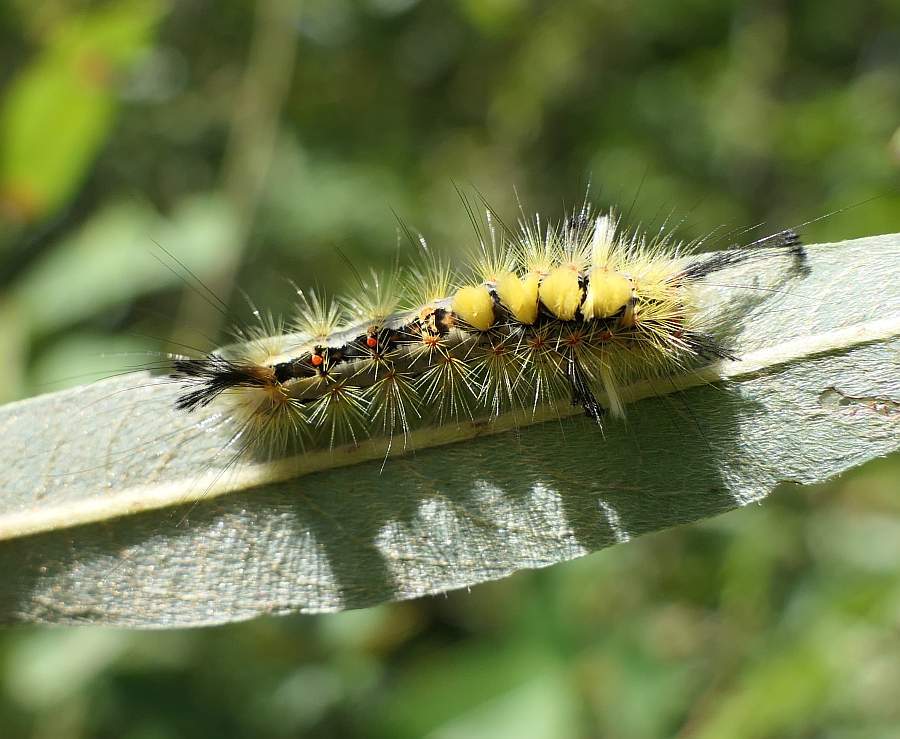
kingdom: Animalia
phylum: Arthropoda
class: Insecta
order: Lepidoptera
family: Erebidae
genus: Orgyia
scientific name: Orgyia antiqua
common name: Vapourer
